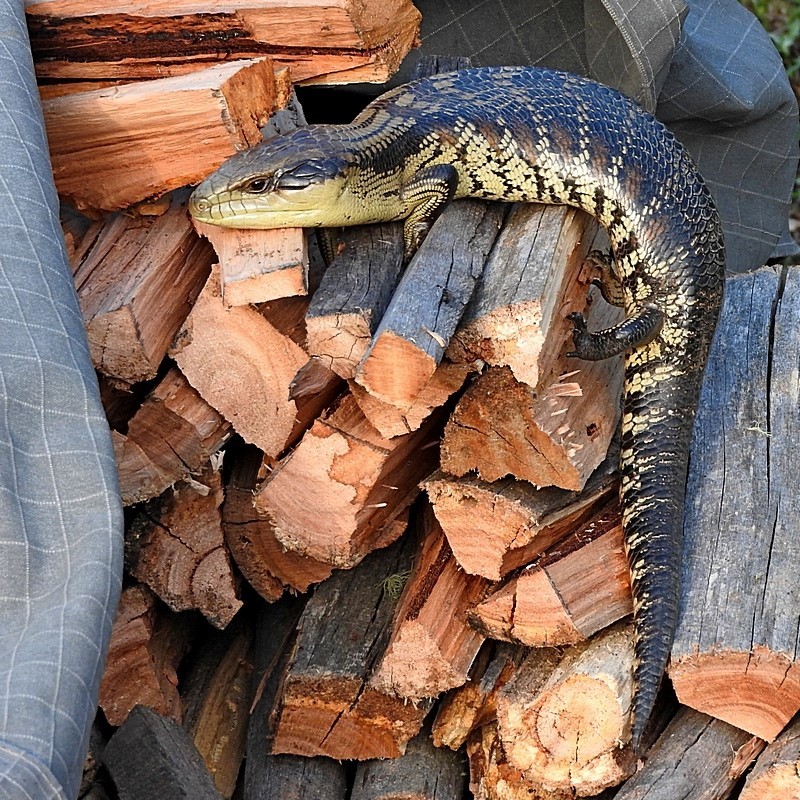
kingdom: Animalia
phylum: Chordata
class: Squamata
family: Scincidae
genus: Tiliqua
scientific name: Tiliqua scincoides
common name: Common bluetongue
